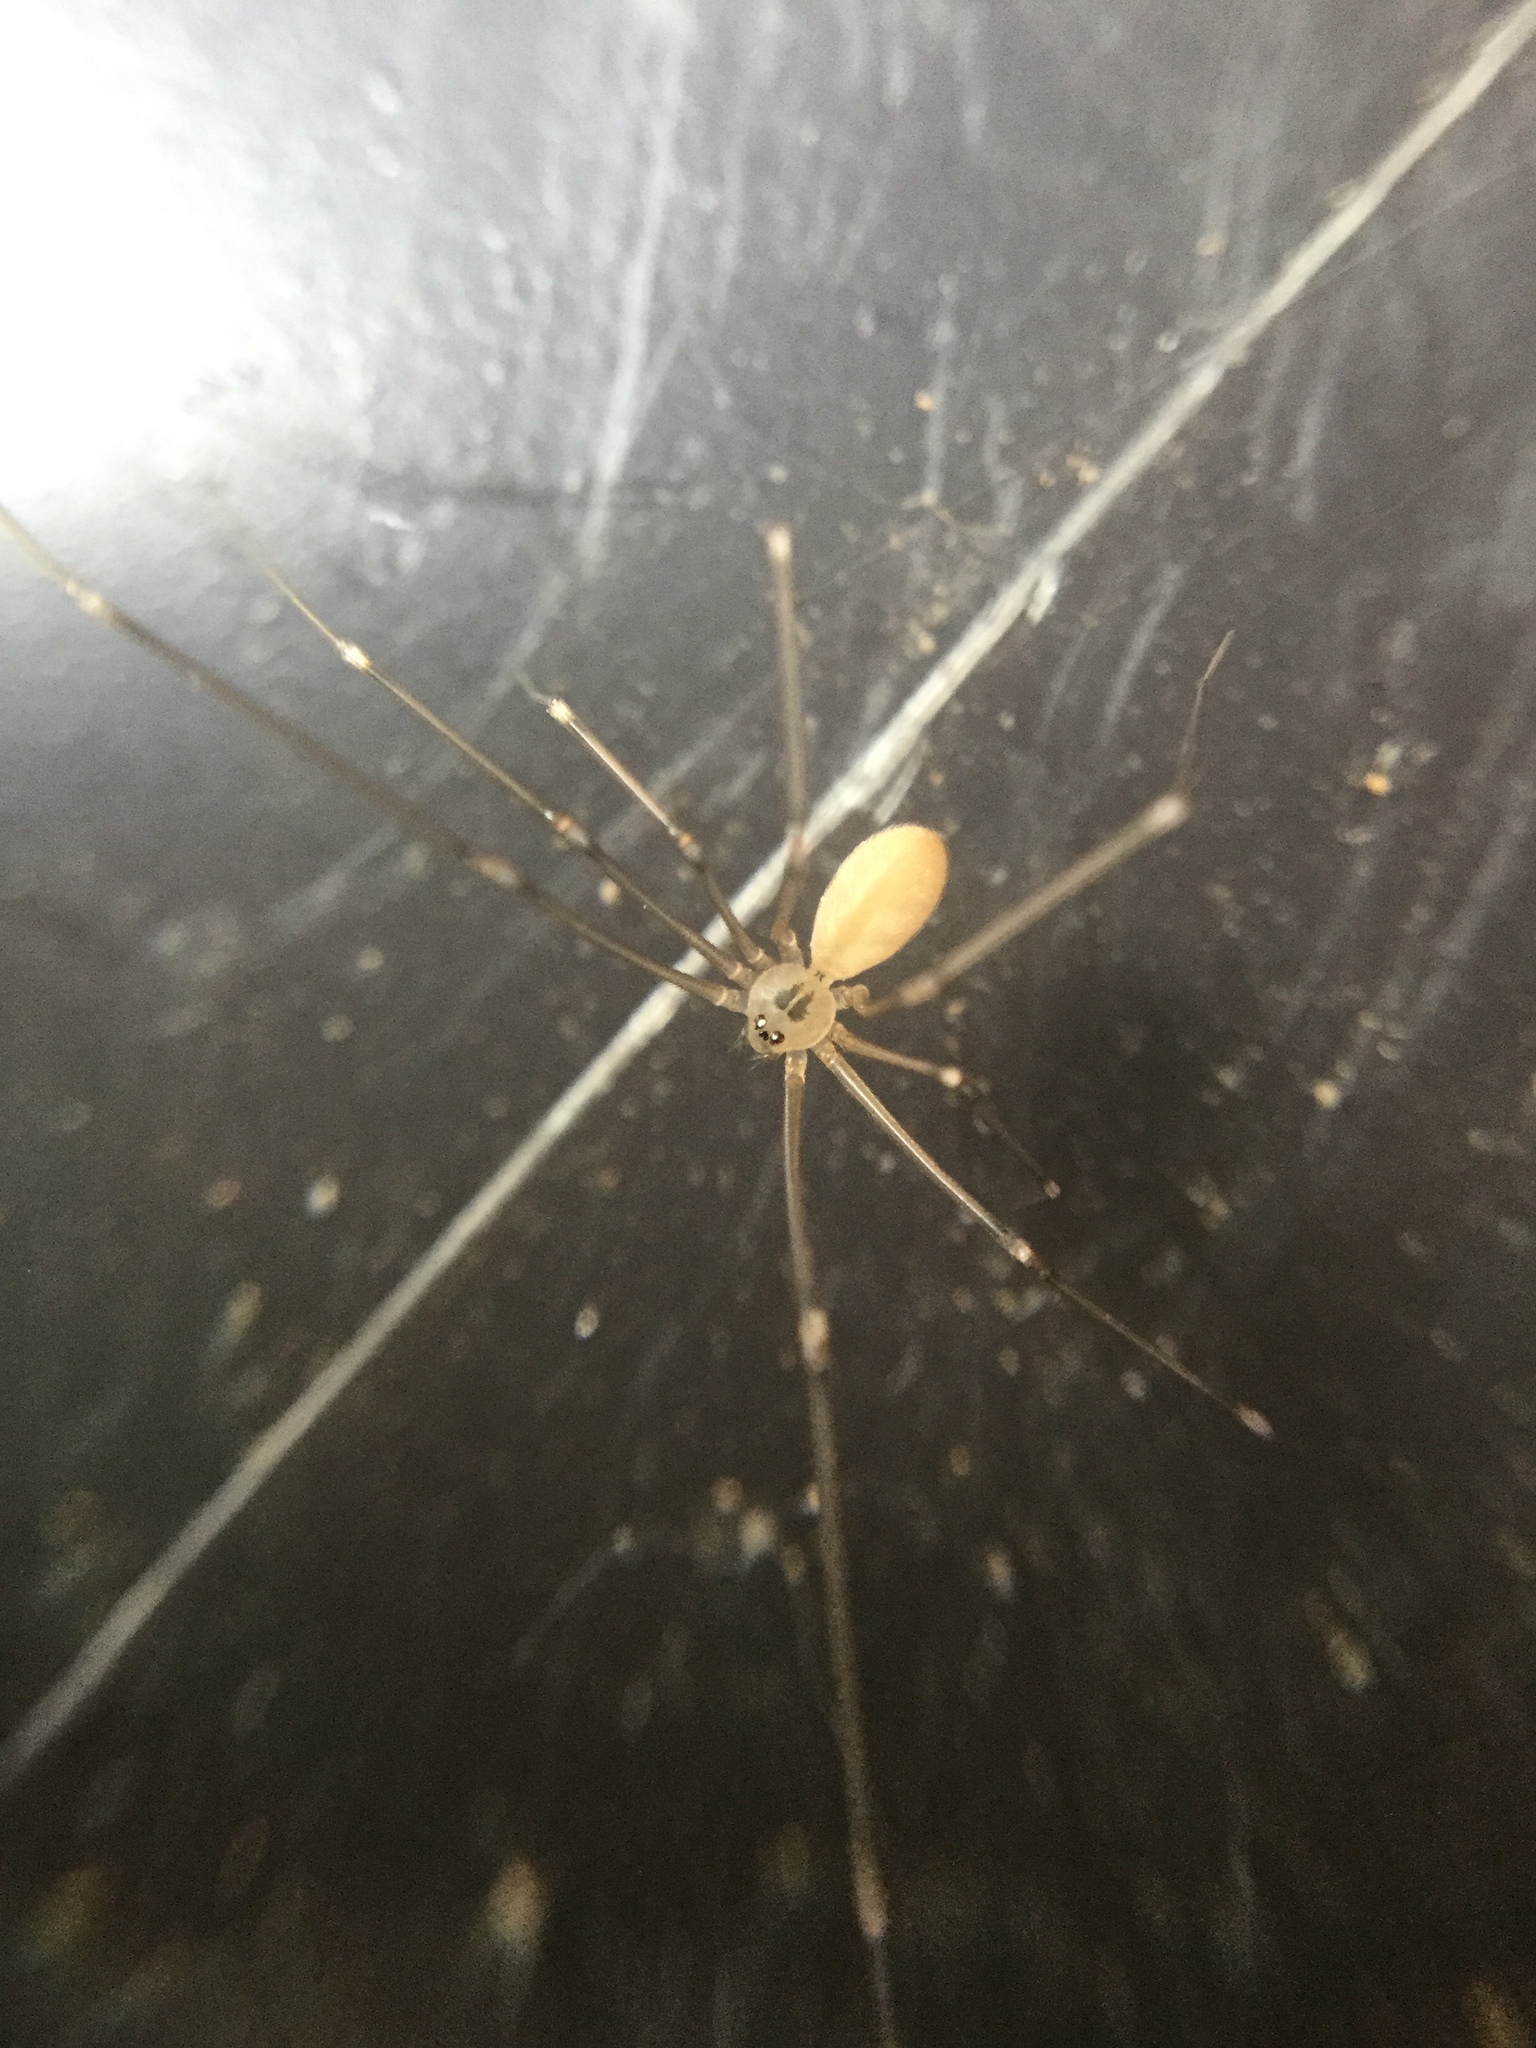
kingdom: Animalia
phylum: Arthropoda
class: Arachnida
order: Araneae
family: Pholcidae
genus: Pholcus
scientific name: Pholcus phalangioides
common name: Longbodied cellar spider
